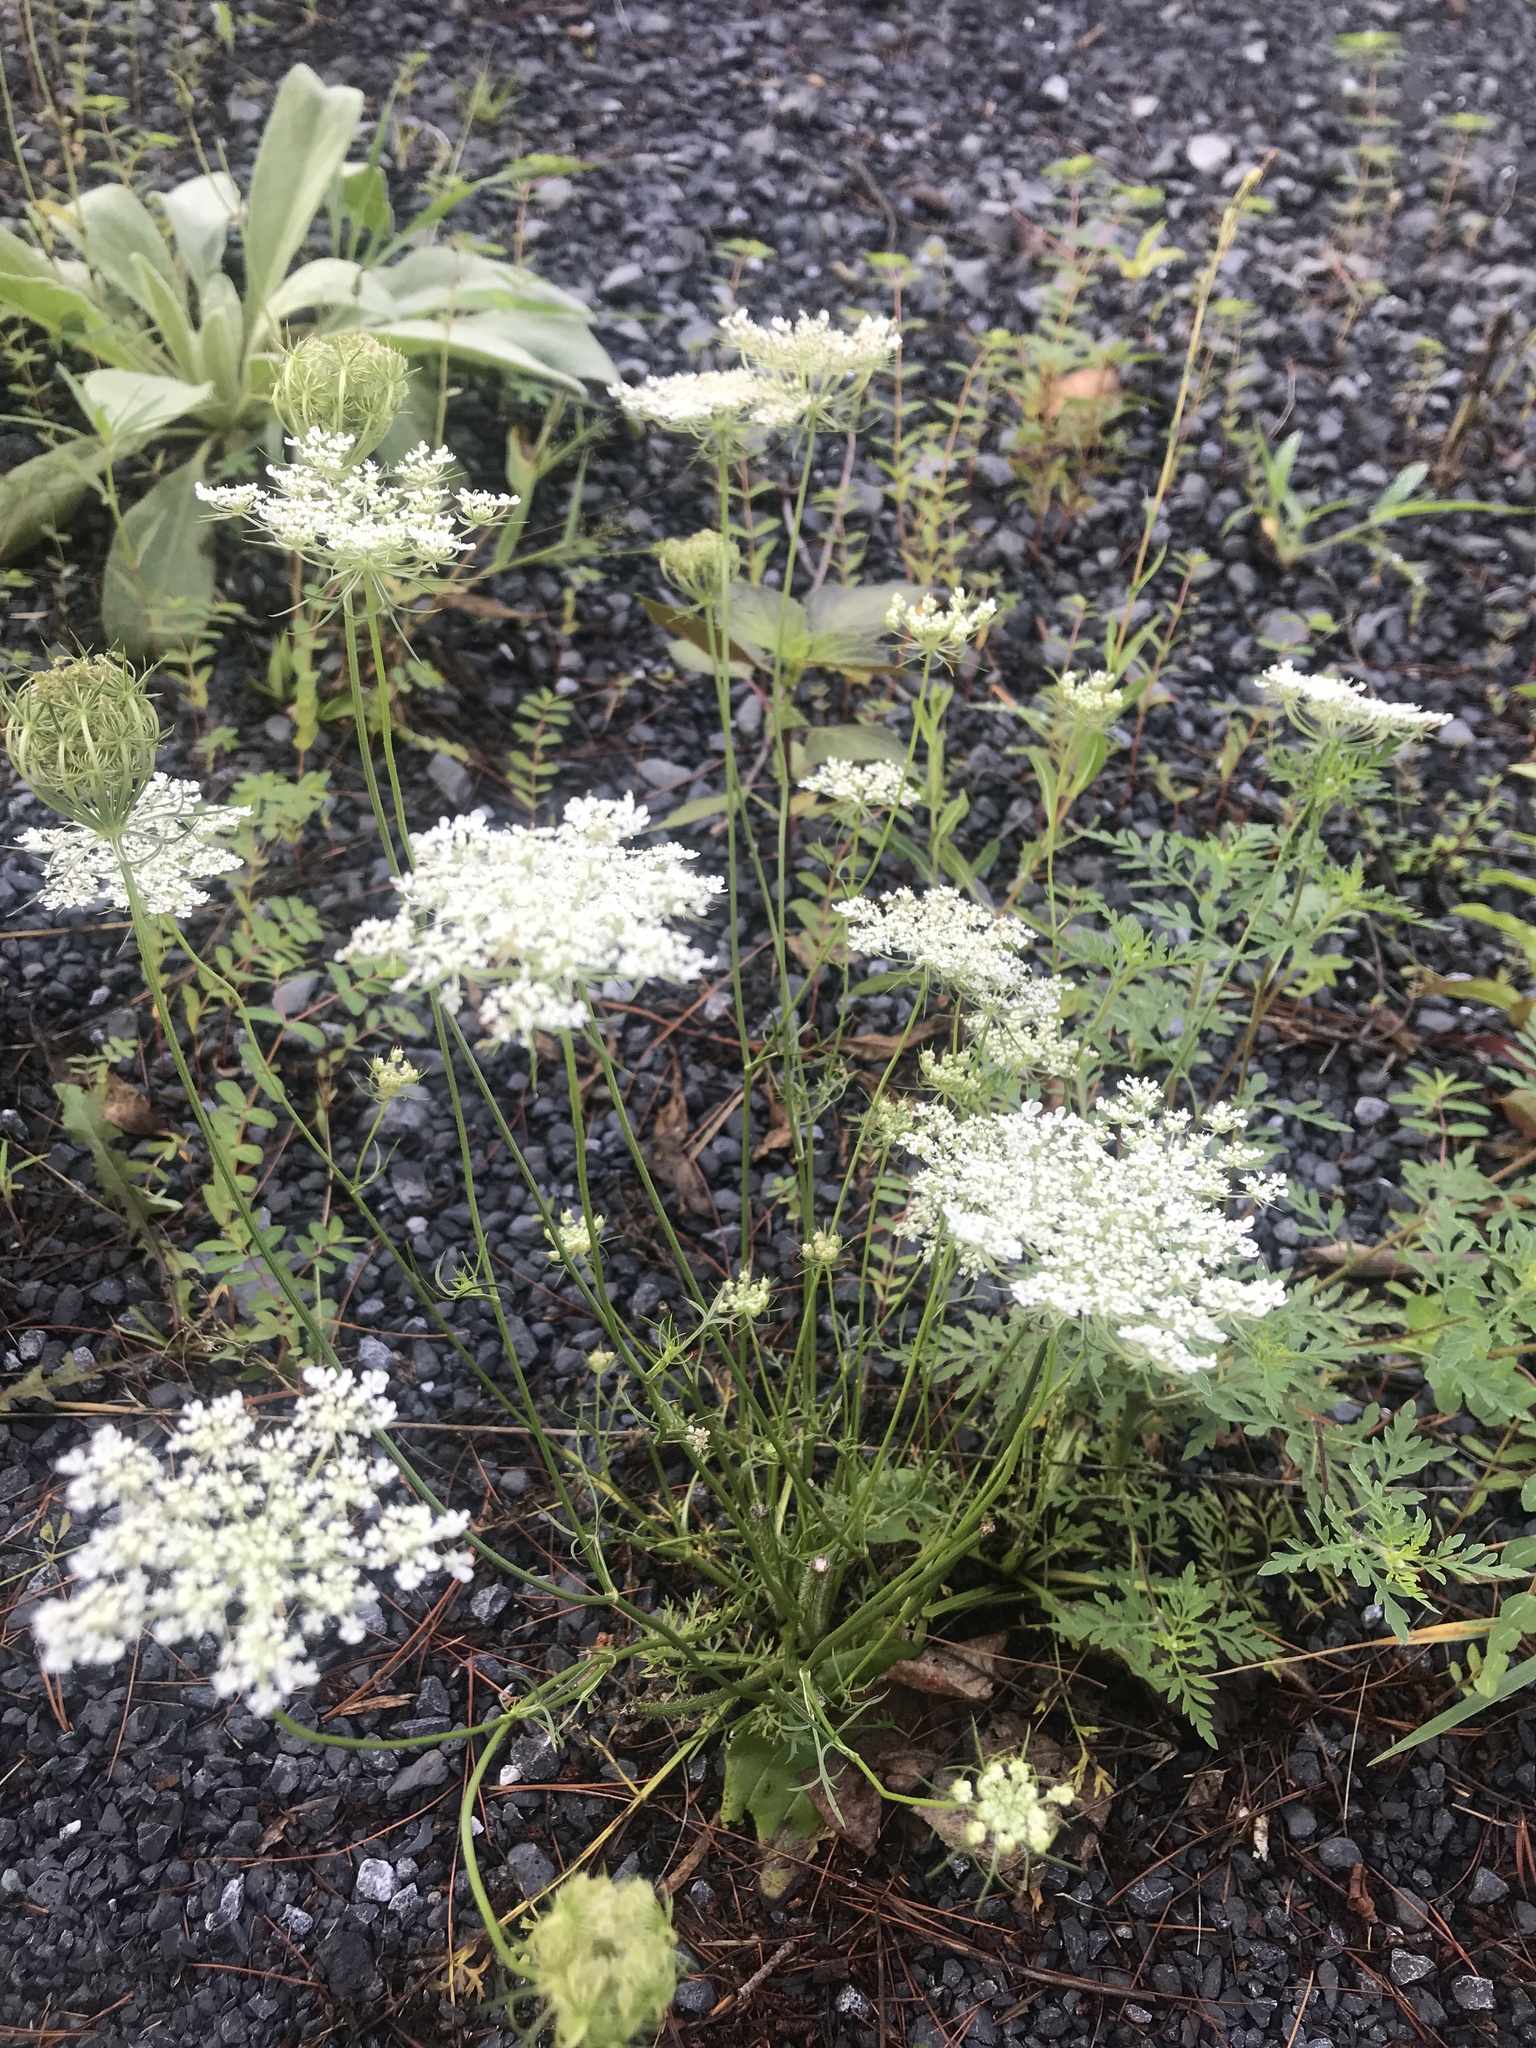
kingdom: Plantae
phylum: Tracheophyta
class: Magnoliopsida
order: Apiales
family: Apiaceae
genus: Daucus
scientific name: Daucus carota
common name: Wild carrot
